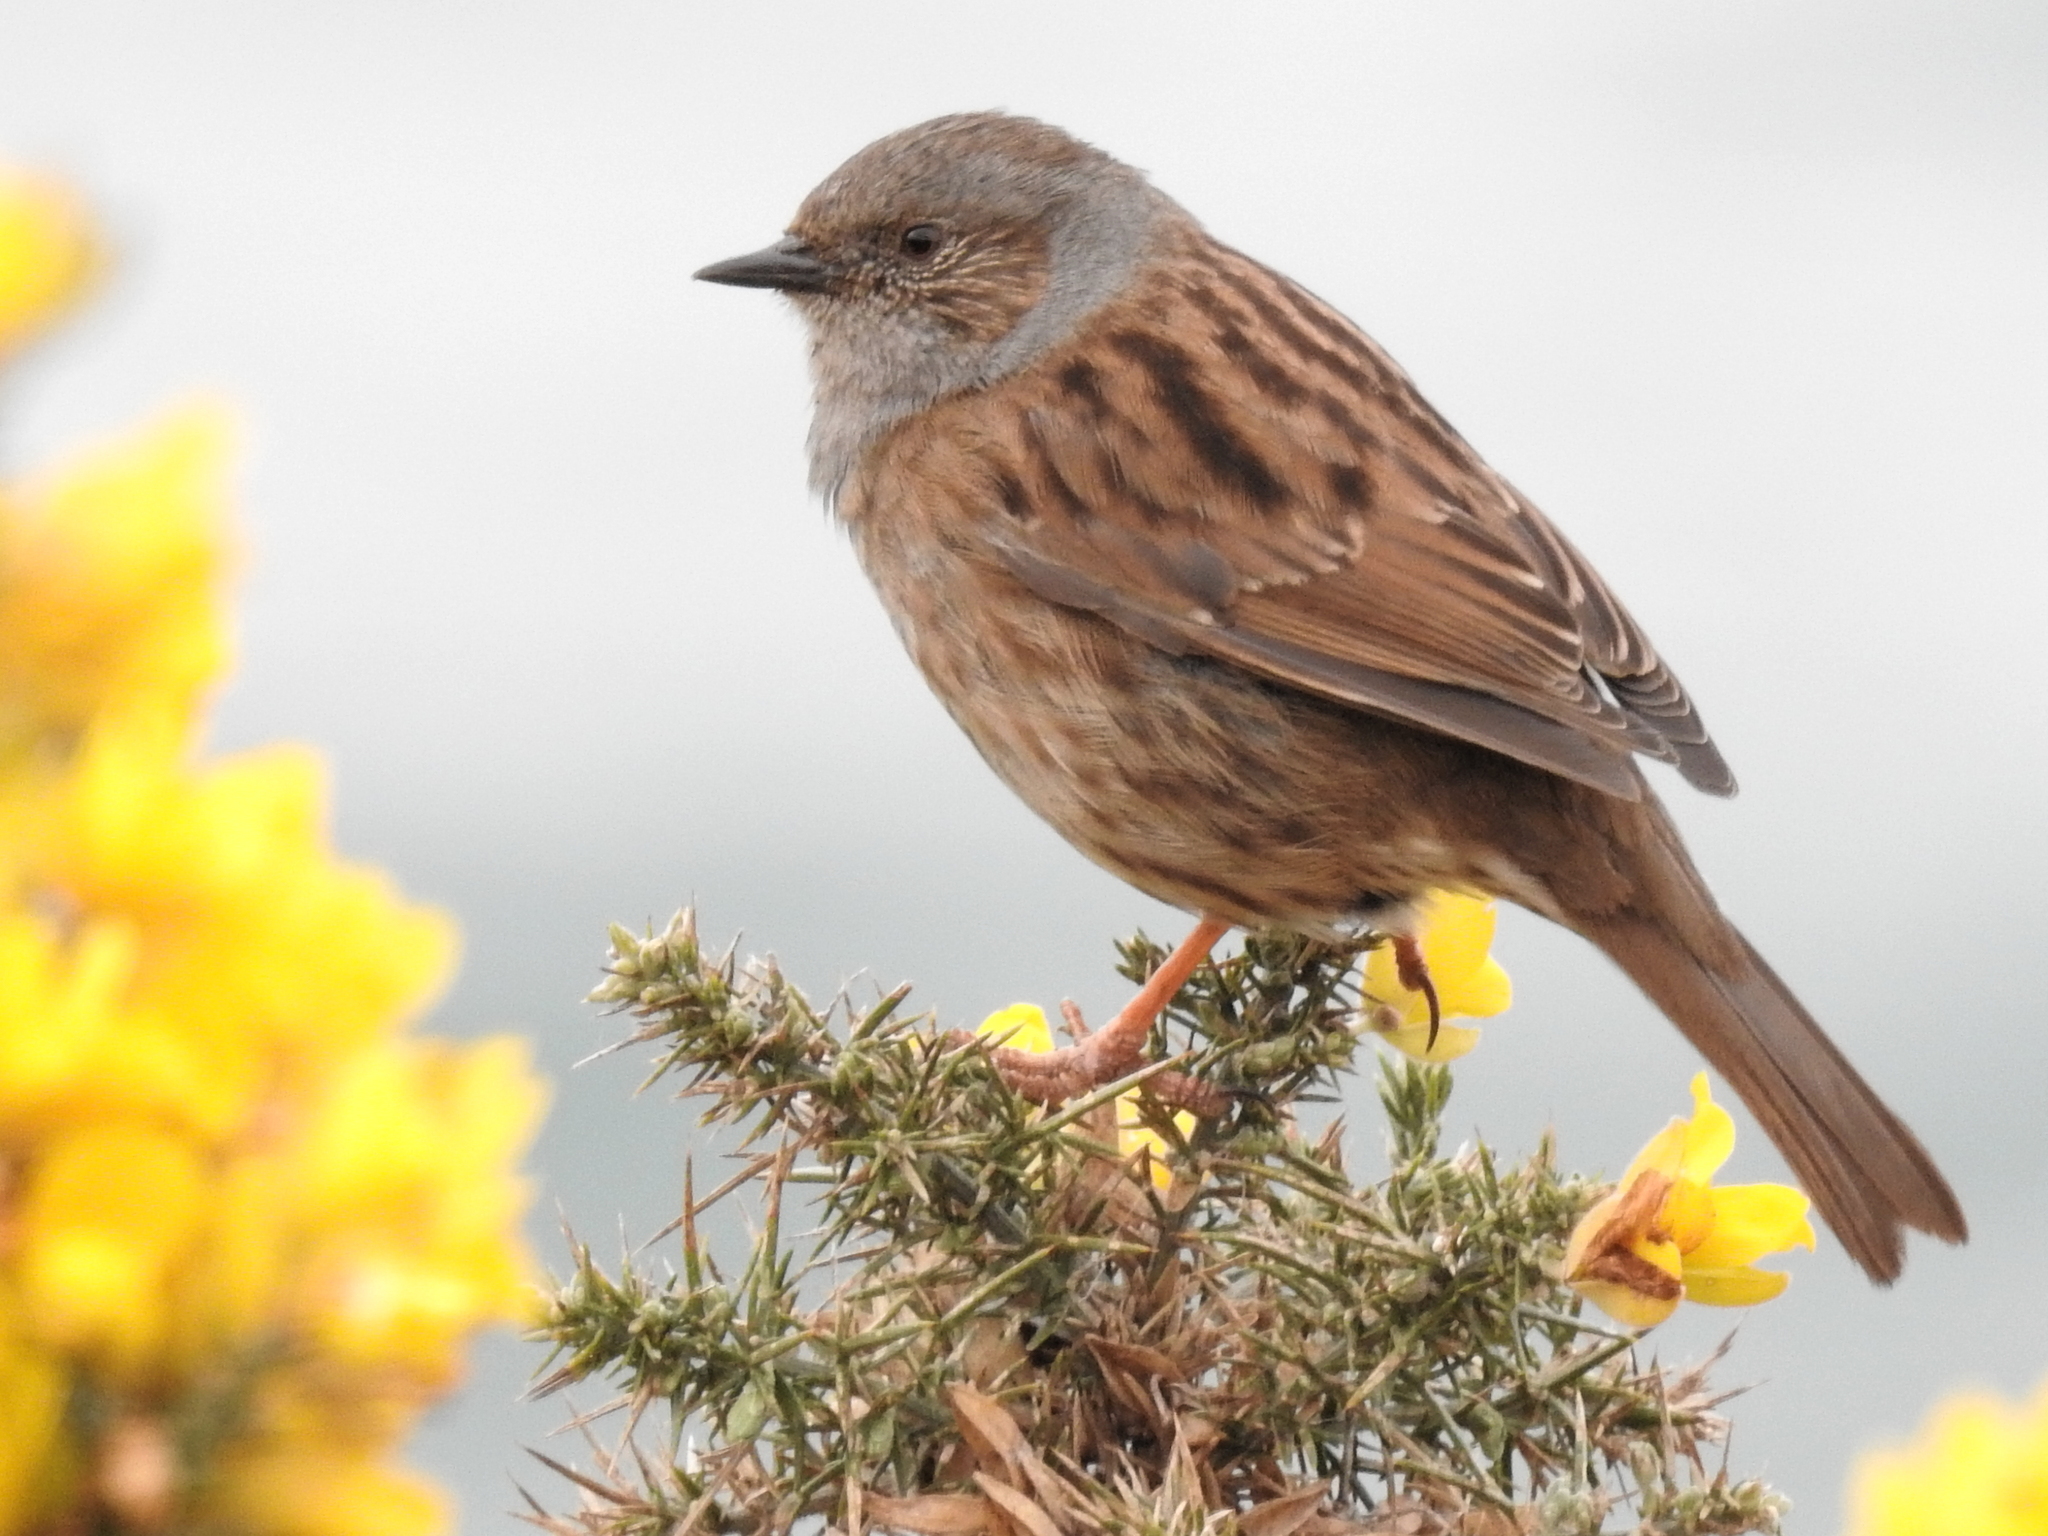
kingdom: Animalia
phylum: Chordata
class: Aves
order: Passeriformes
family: Prunellidae
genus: Prunella
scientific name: Prunella modularis
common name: Dunnock
